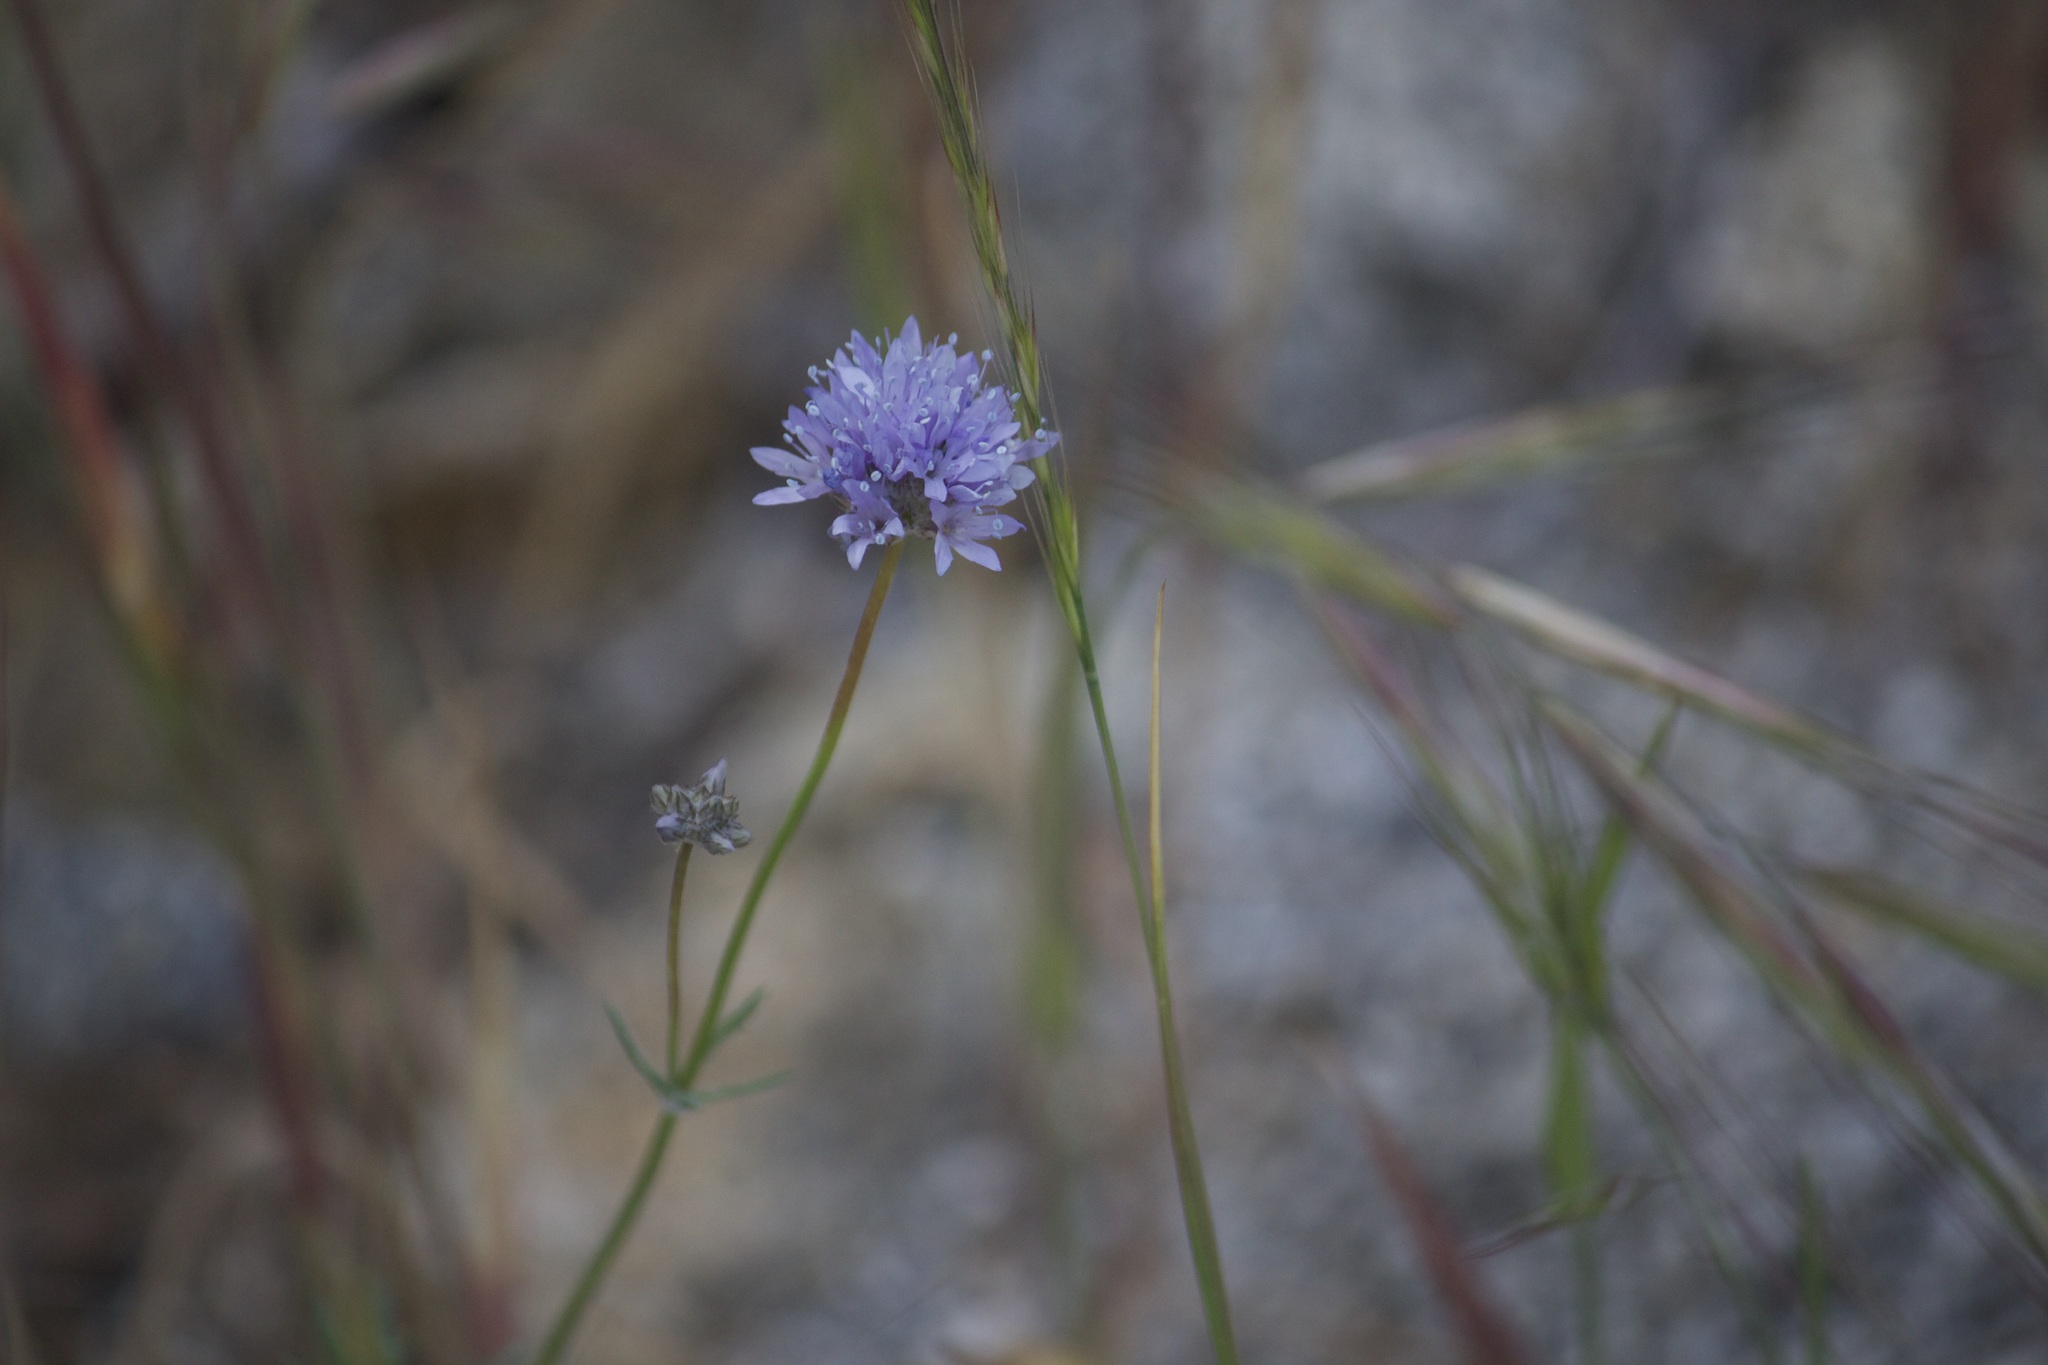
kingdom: Plantae
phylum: Tracheophyta
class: Magnoliopsida
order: Ericales
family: Polemoniaceae
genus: Gilia
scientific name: Gilia capitata
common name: Bluehead gilia
